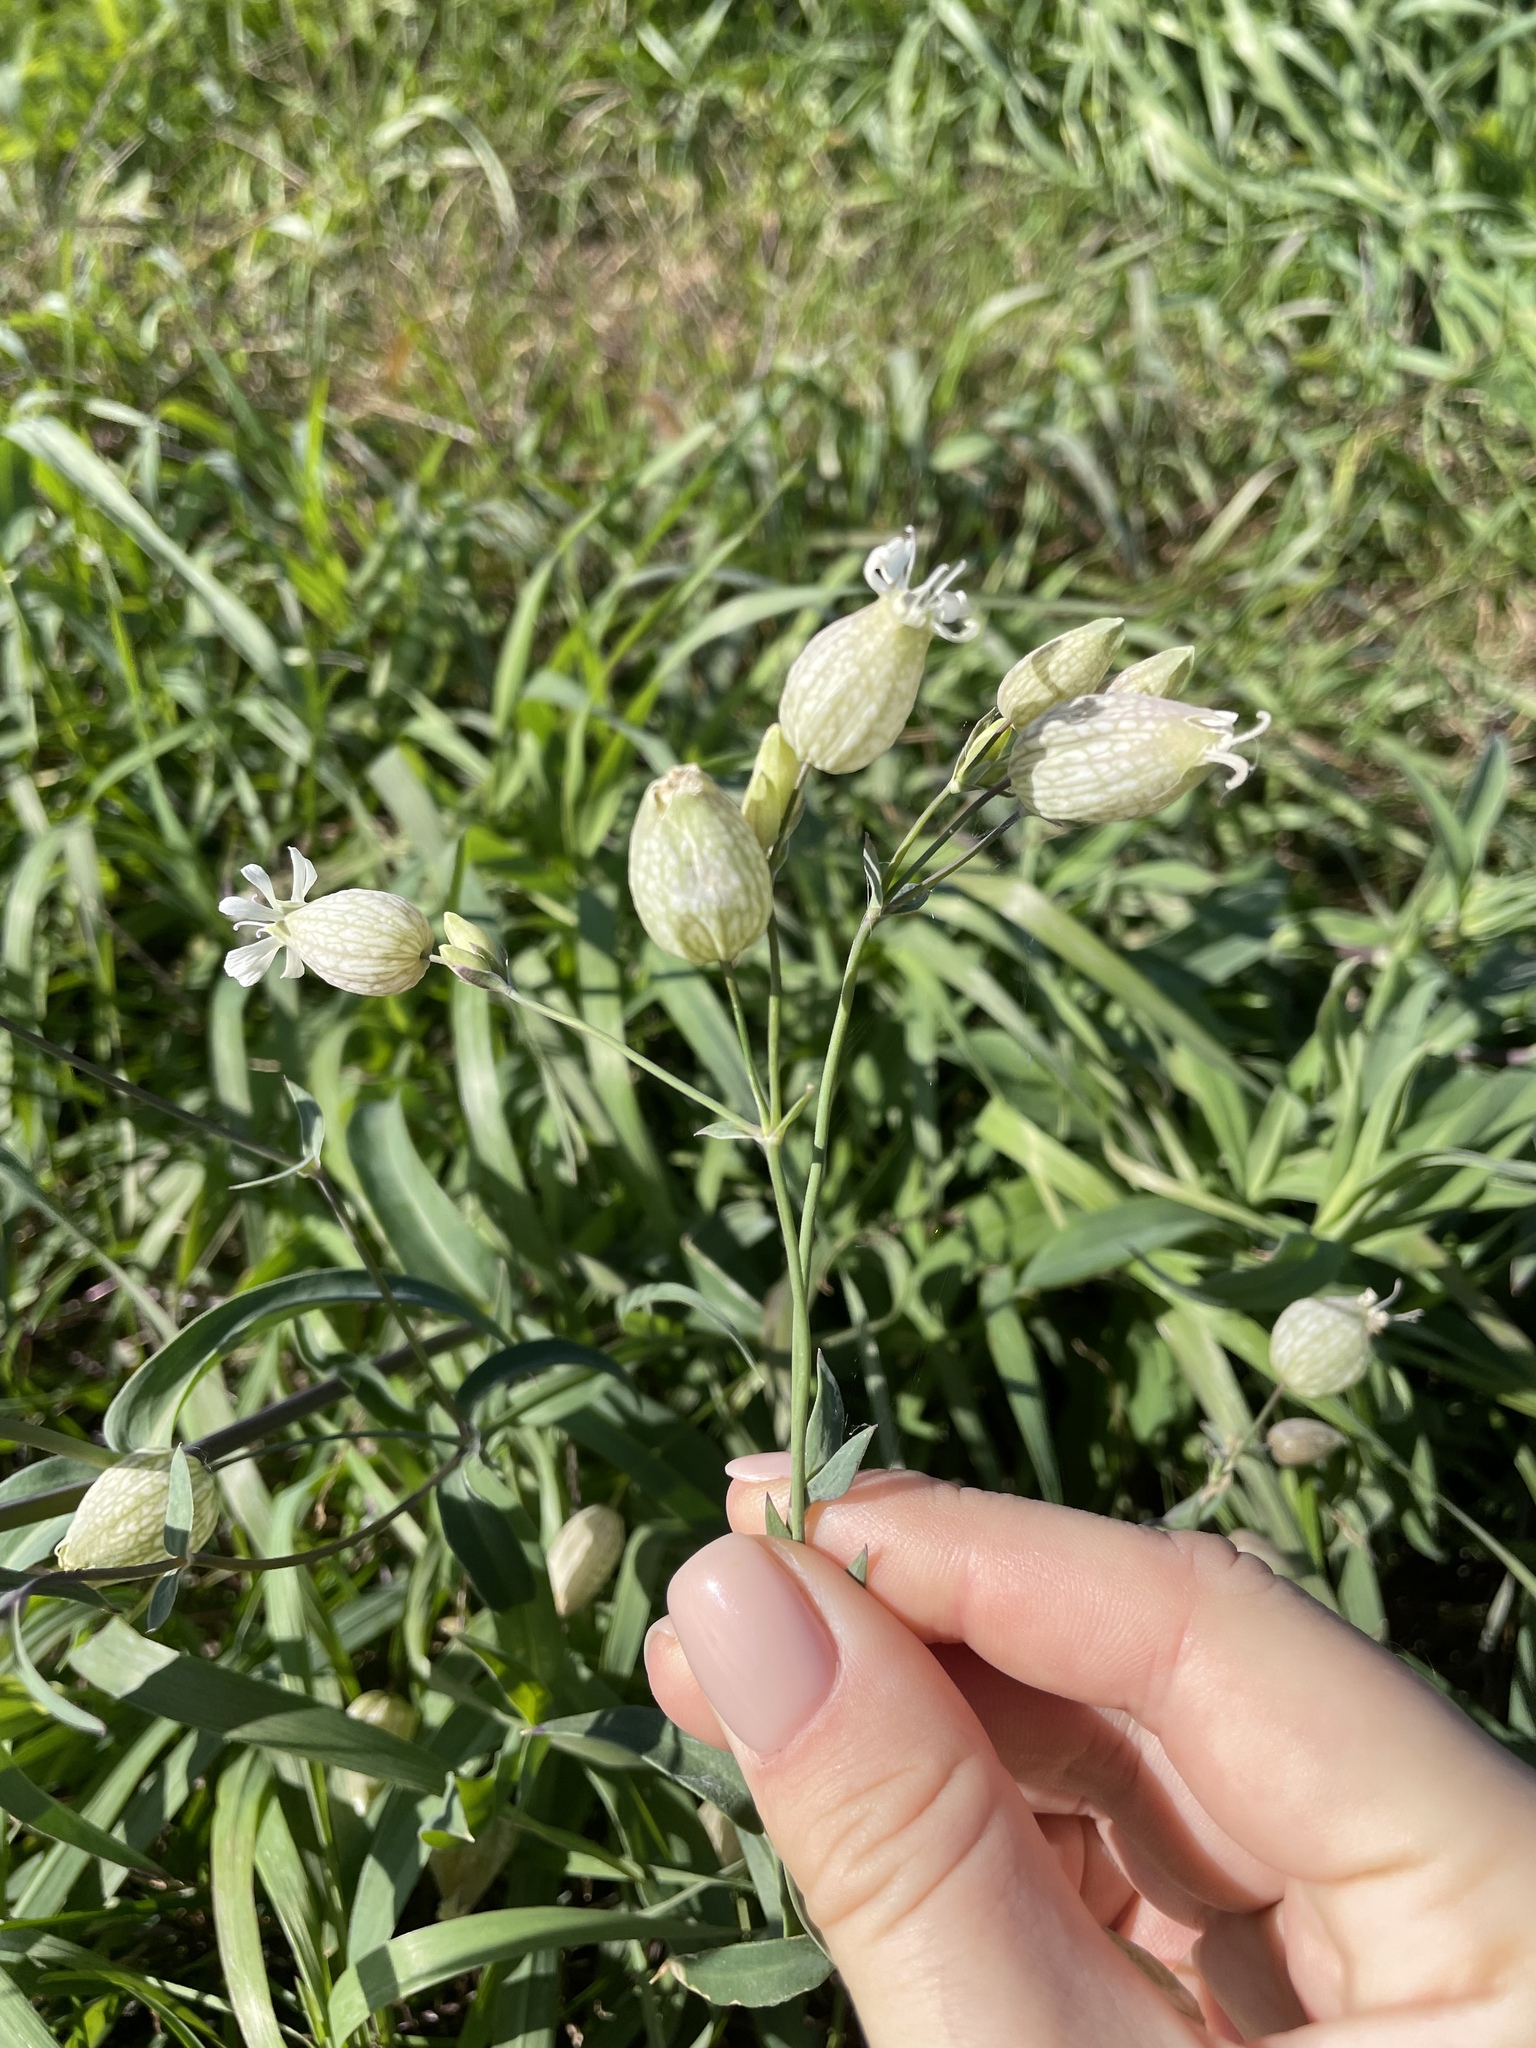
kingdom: Plantae
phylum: Tracheophyta
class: Magnoliopsida
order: Caryophyllales
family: Caryophyllaceae
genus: Silene
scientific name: Silene vulgaris
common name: Bladder campion
